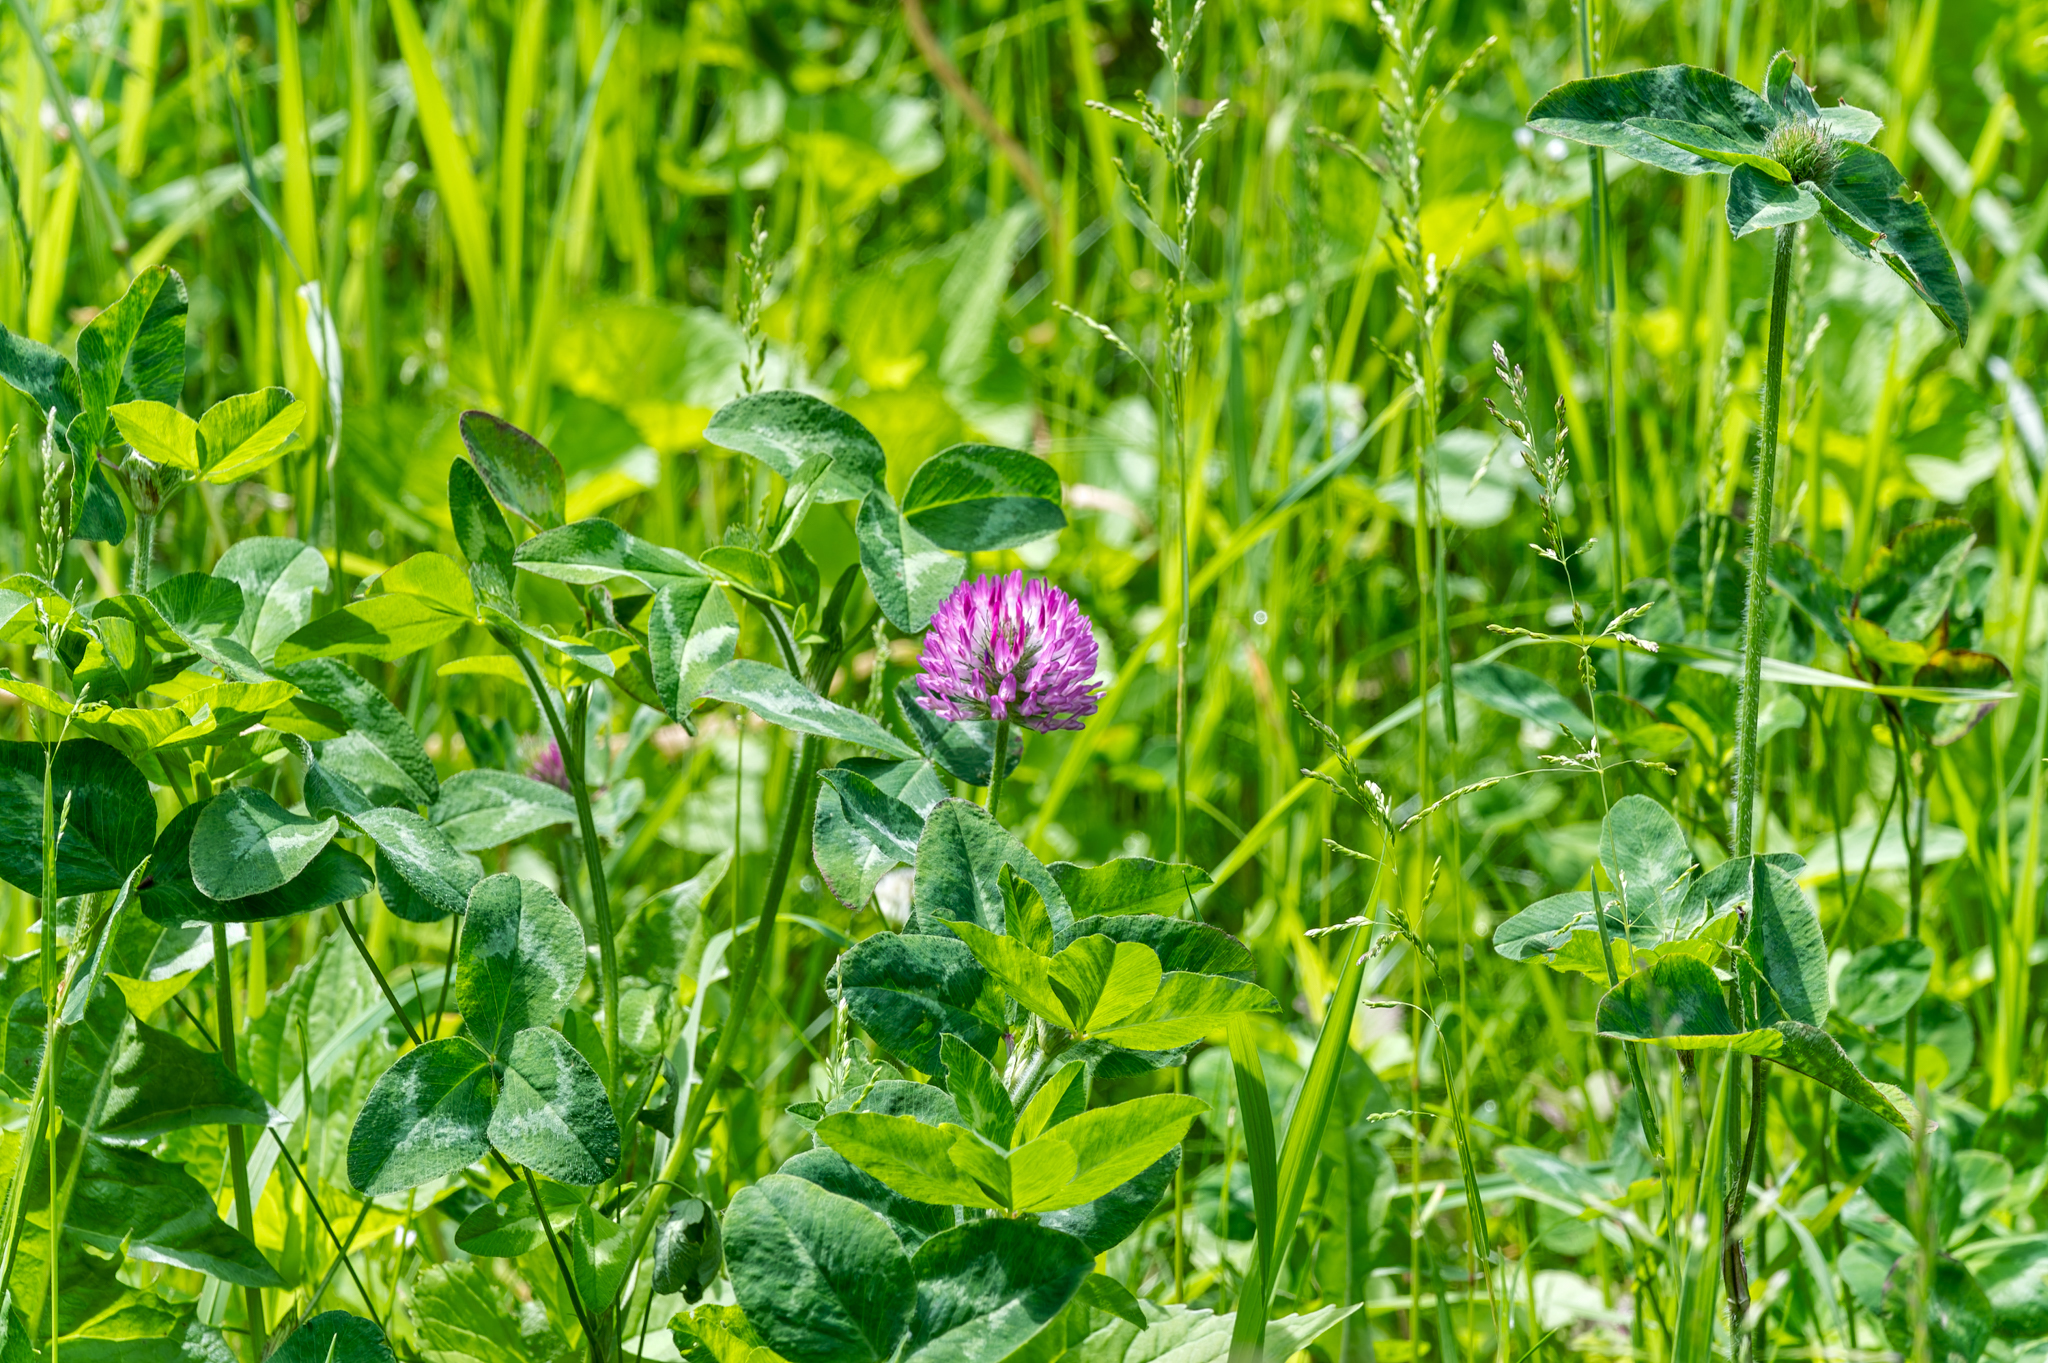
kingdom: Plantae
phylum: Tracheophyta
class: Magnoliopsida
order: Fabales
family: Fabaceae
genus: Trifolium
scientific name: Trifolium pratense
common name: Red clover
